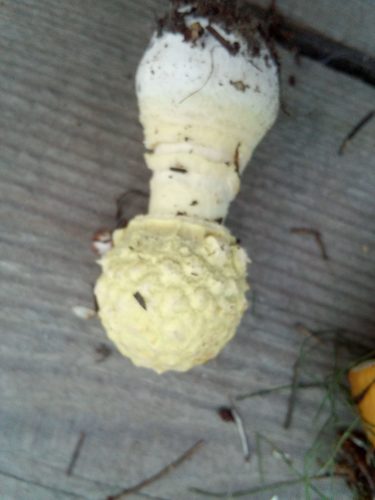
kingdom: Fungi
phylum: Basidiomycota
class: Agaricomycetes
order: Agaricales
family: Amanitaceae
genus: Amanita
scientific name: Amanita
